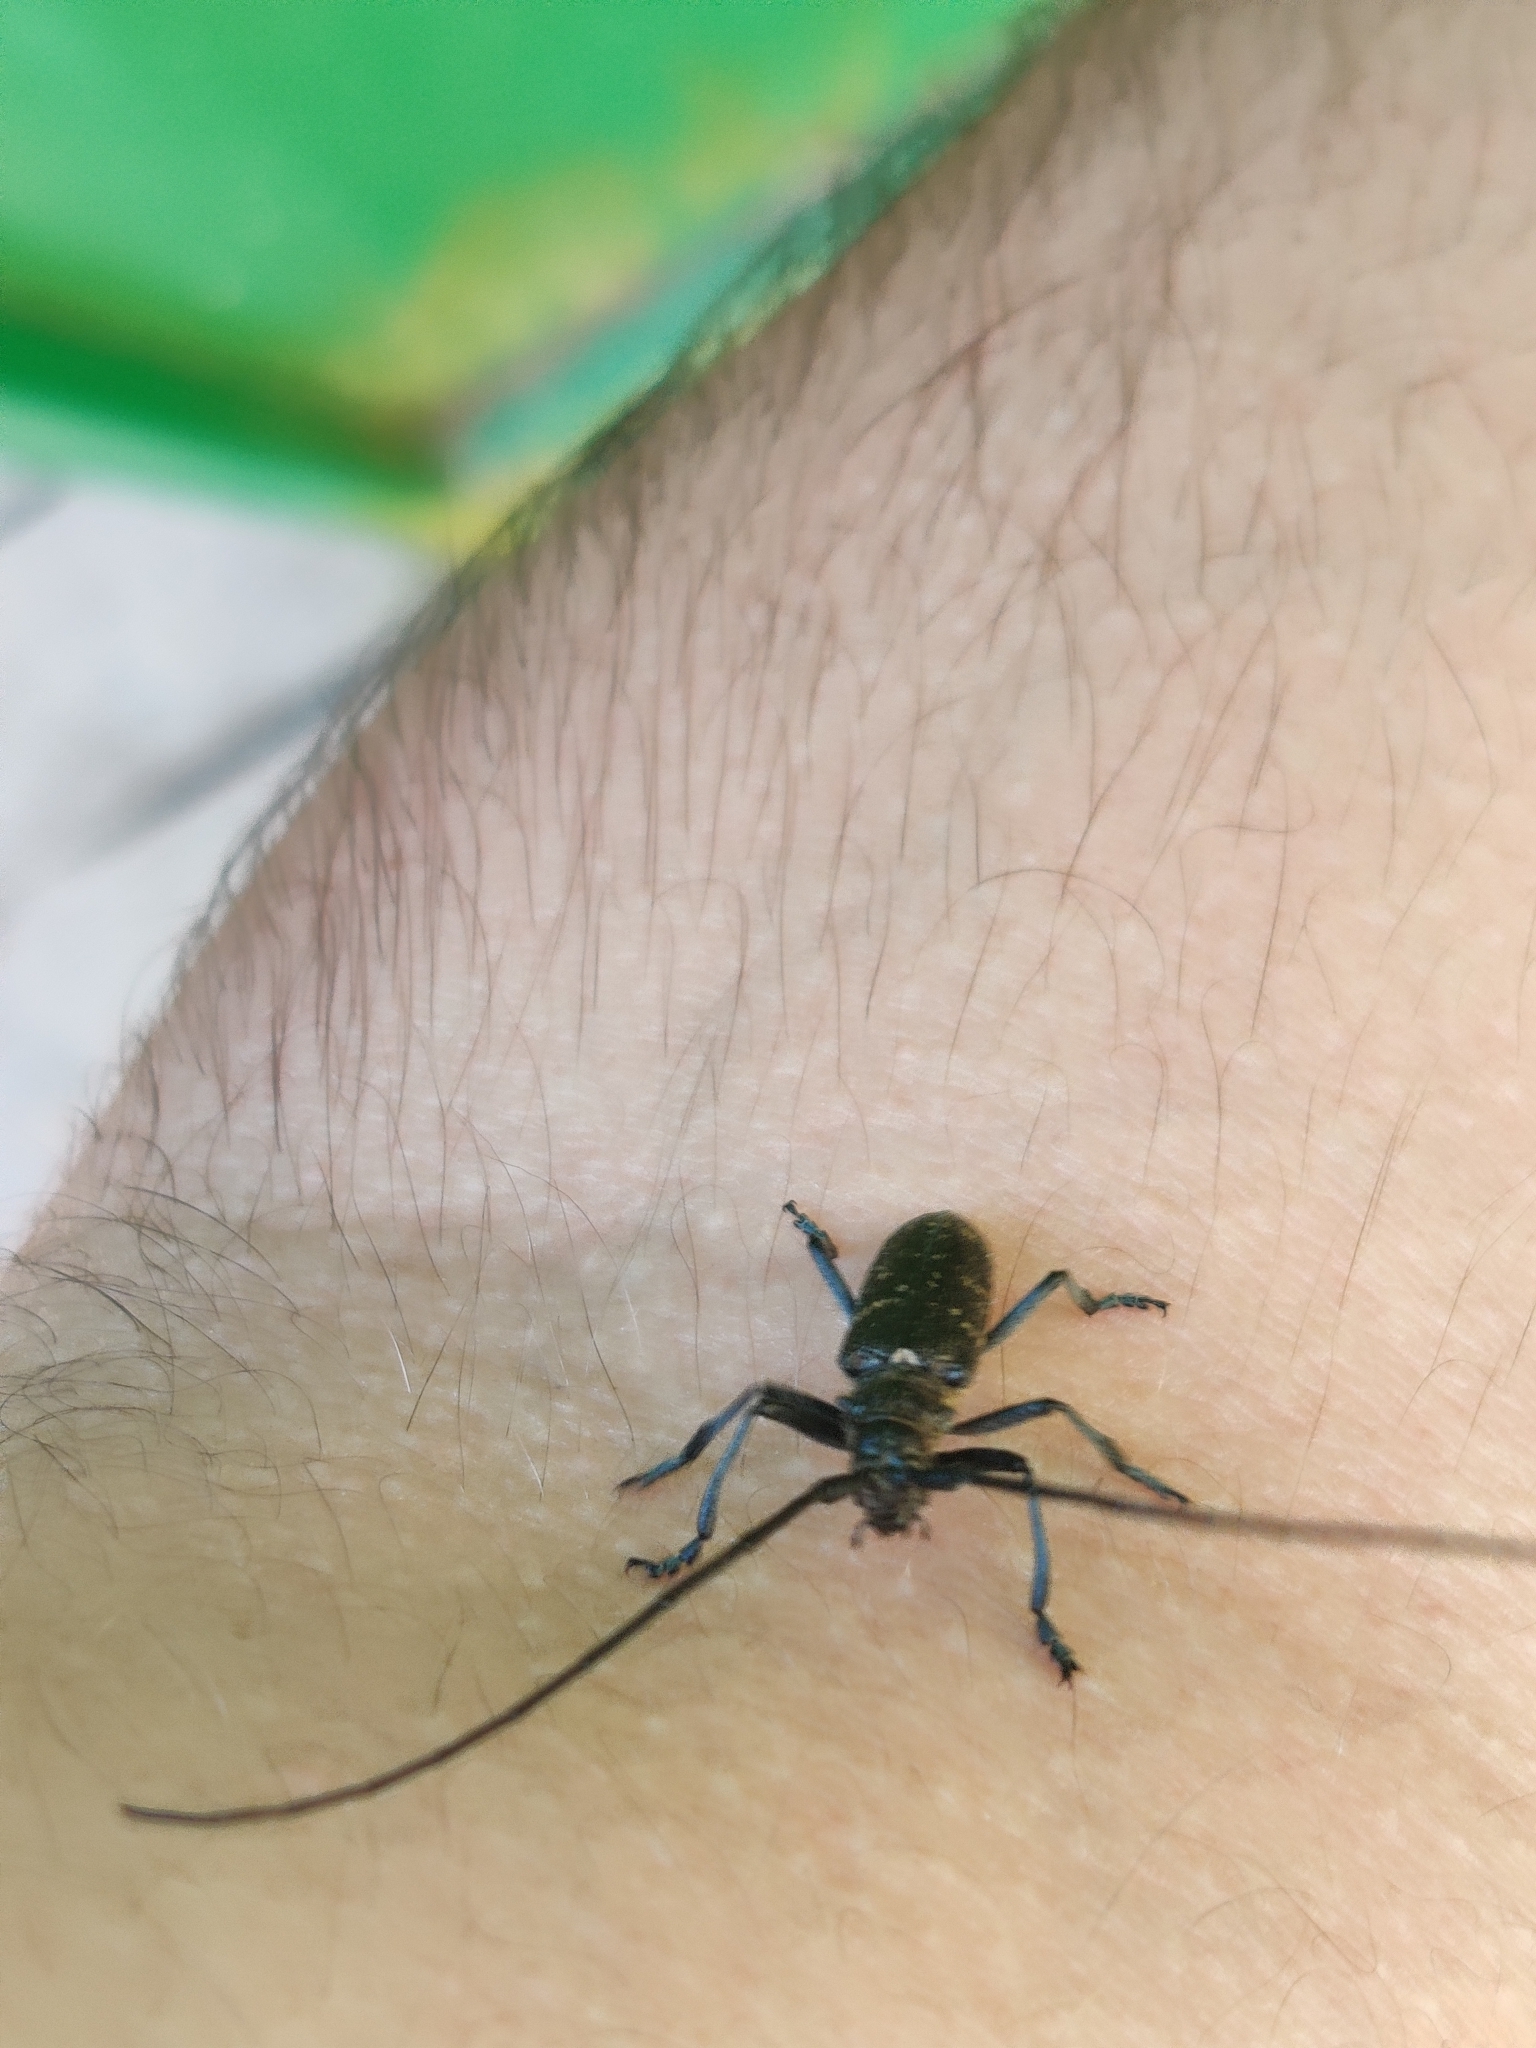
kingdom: Animalia
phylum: Arthropoda
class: Insecta
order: Coleoptera
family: Cerambycidae
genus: Monochamus
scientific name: Monochamus sutor
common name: Pine sawyer
